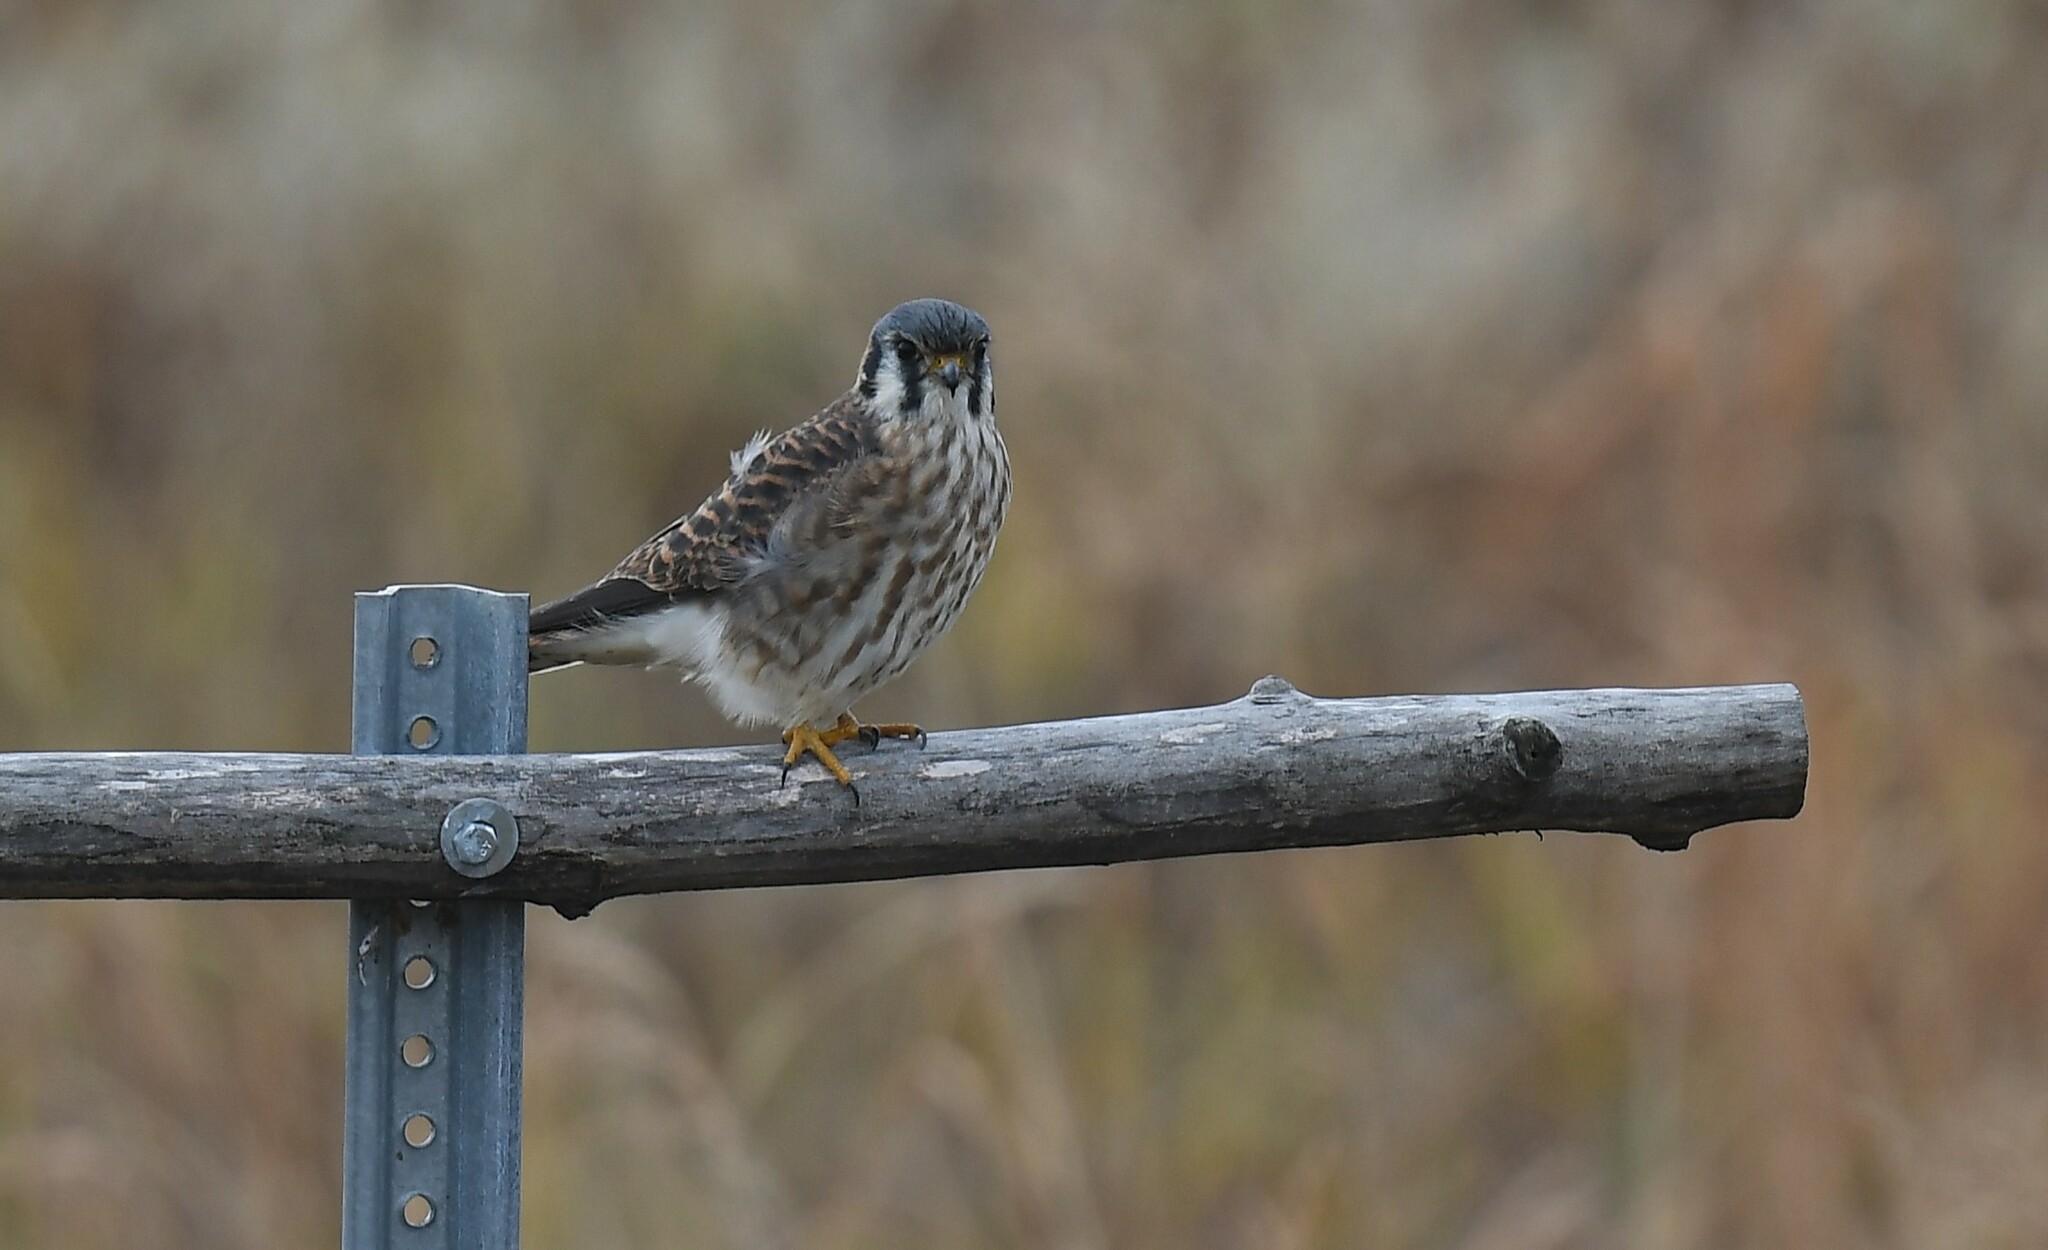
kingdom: Animalia
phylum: Chordata
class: Aves
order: Falconiformes
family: Falconidae
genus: Falco
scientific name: Falco sparverius
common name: American kestrel
